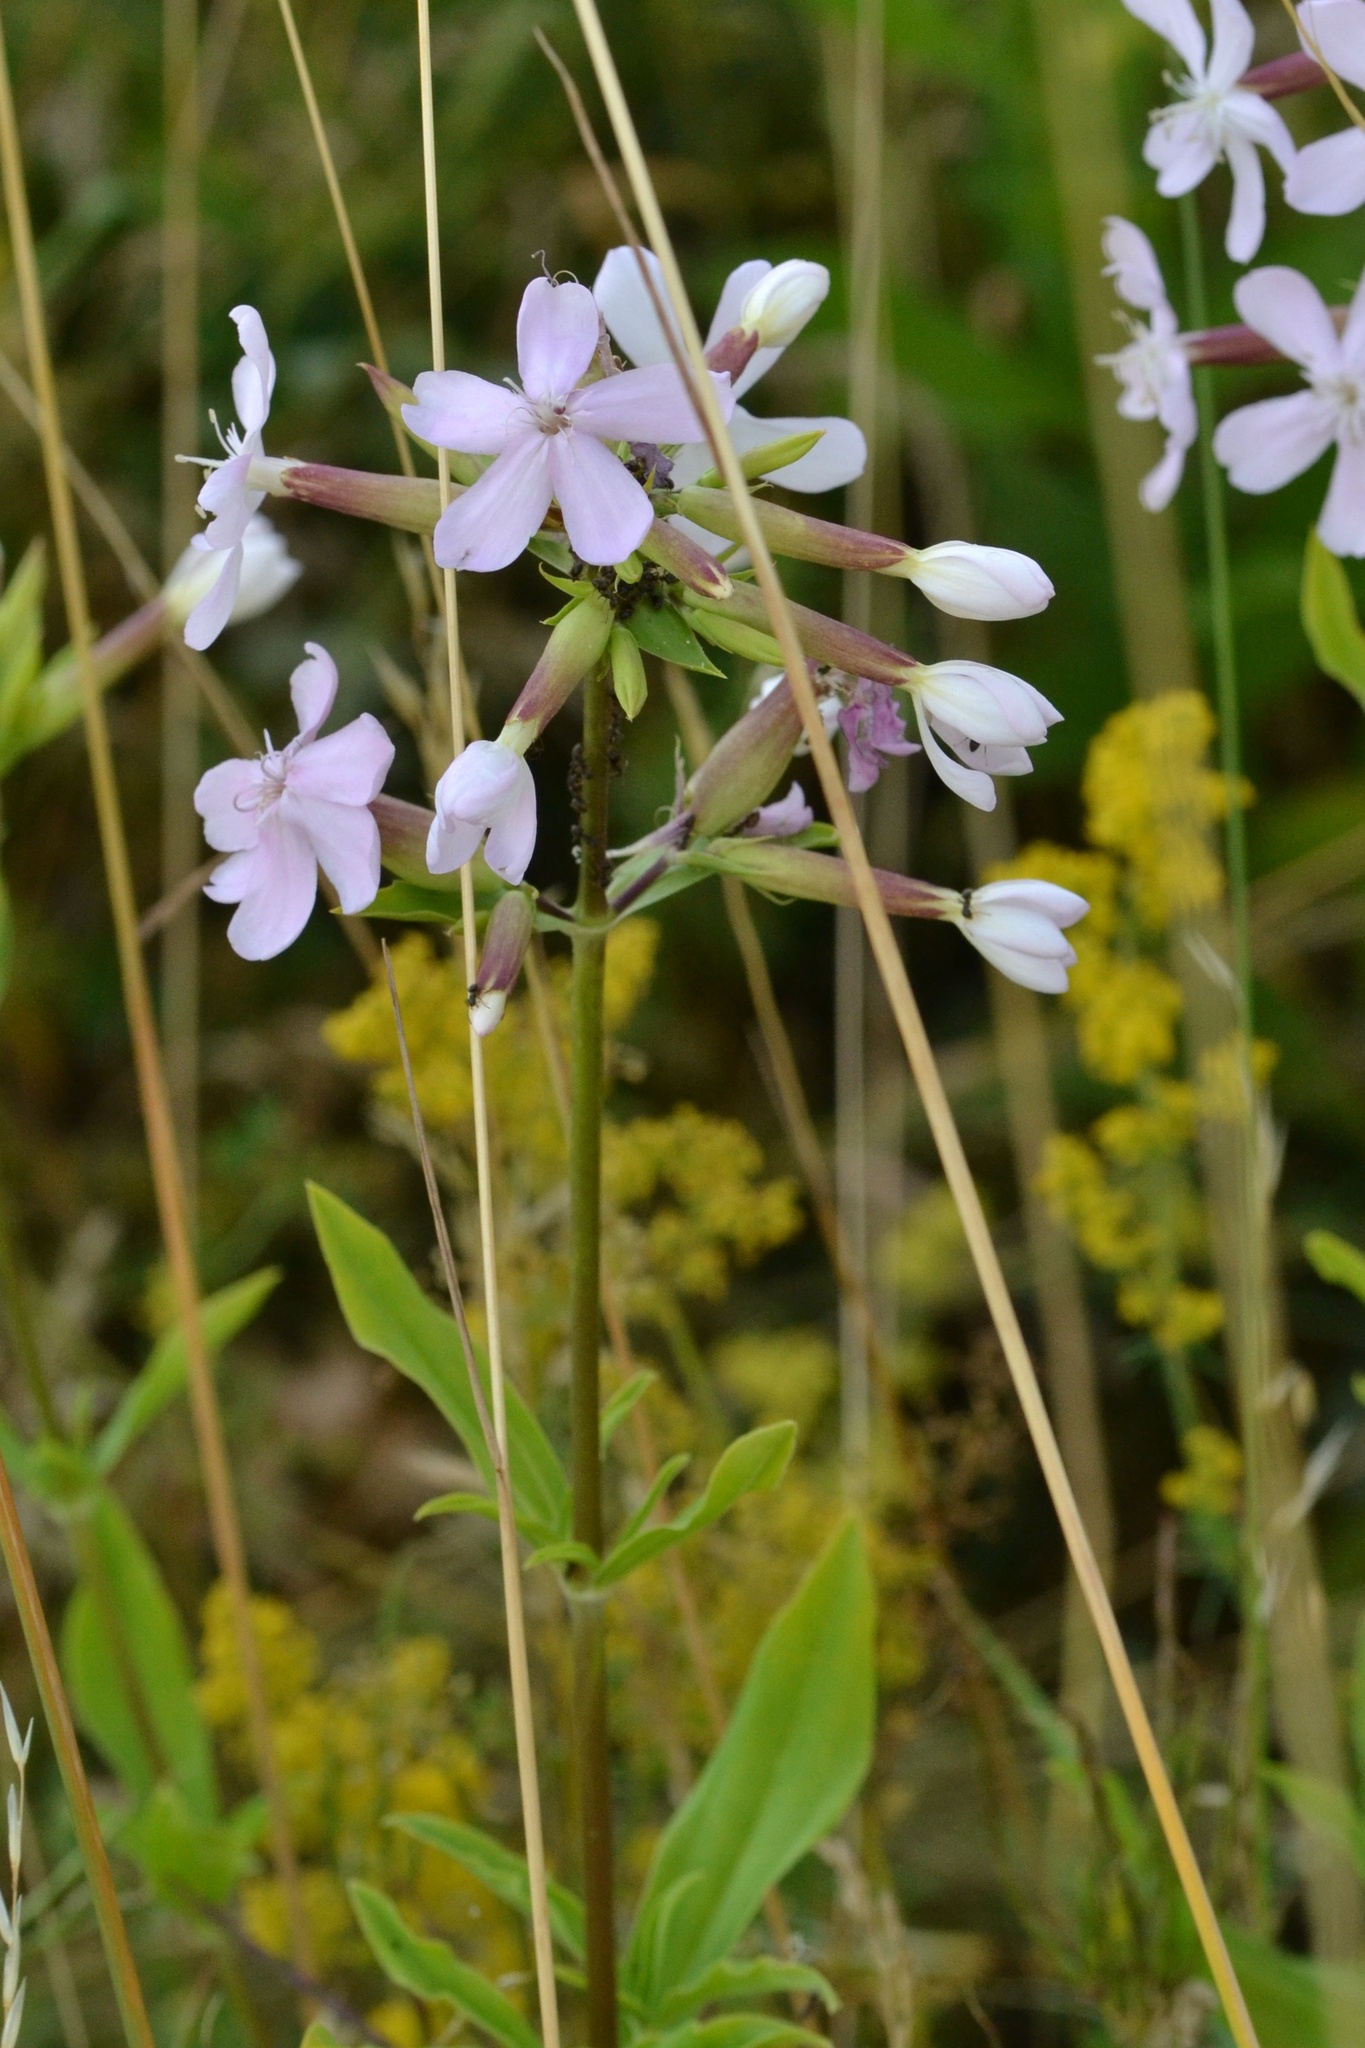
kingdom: Plantae
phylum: Tracheophyta
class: Magnoliopsida
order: Caryophyllales
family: Caryophyllaceae
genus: Saponaria
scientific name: Saponaria officinalis
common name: Soapwort
